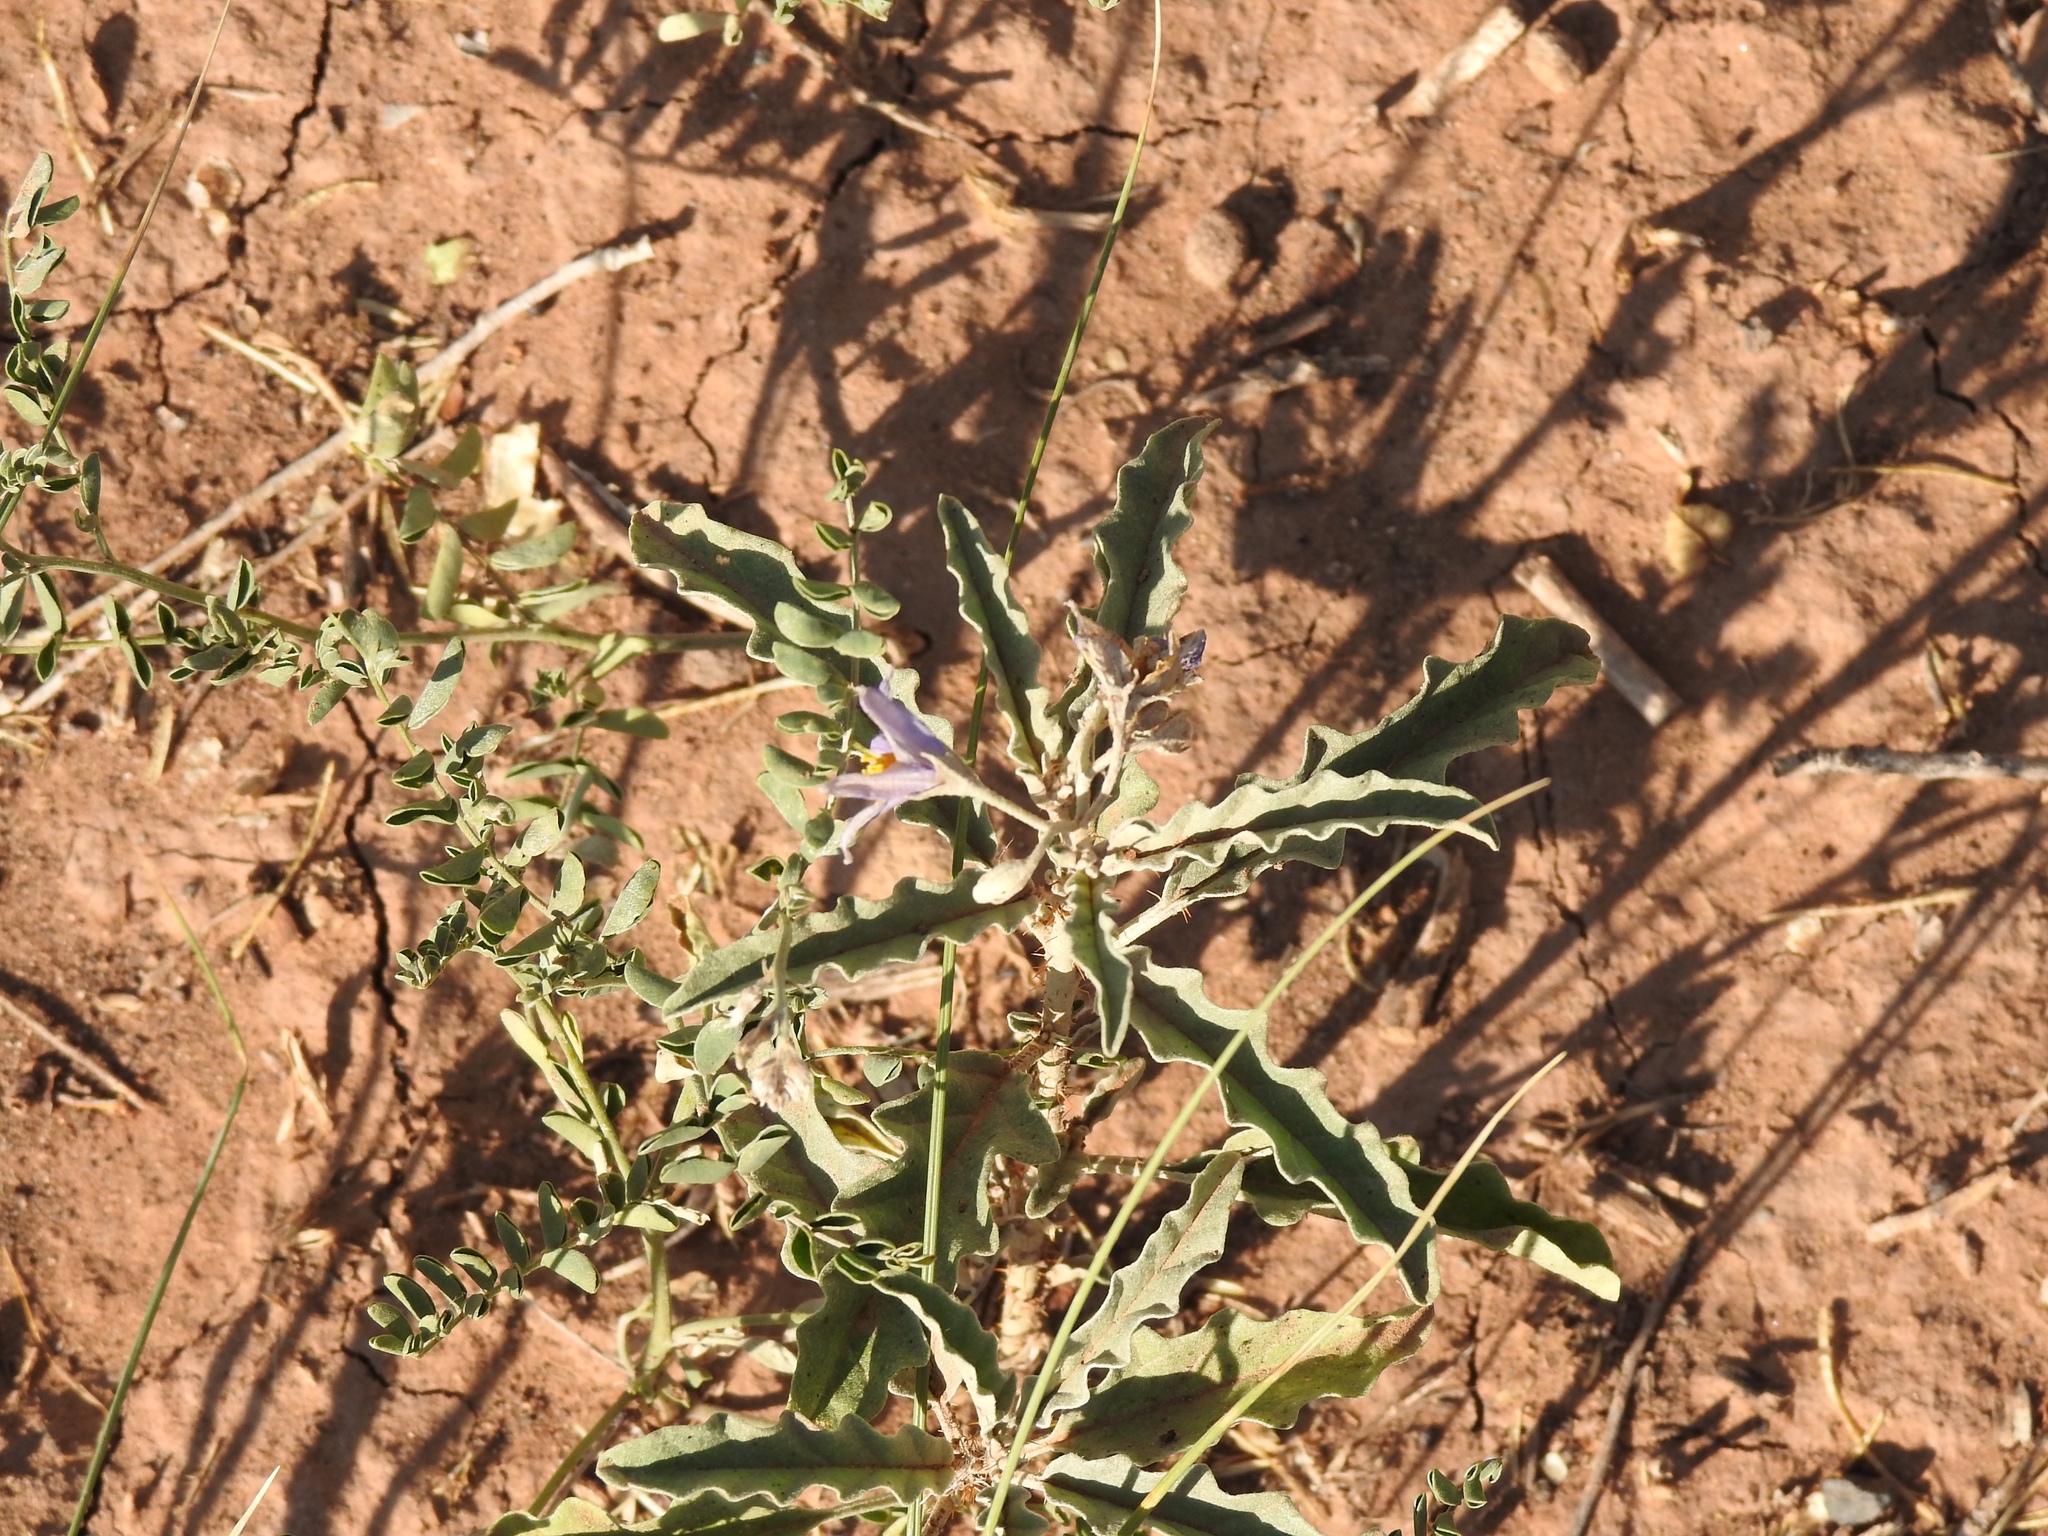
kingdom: Plantae
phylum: Tracheophyta
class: Magnoliopsida
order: Solanales
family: Solanaceae
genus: Solanum
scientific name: Solanum elaeagnifolium
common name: Silverleaf nightshade
